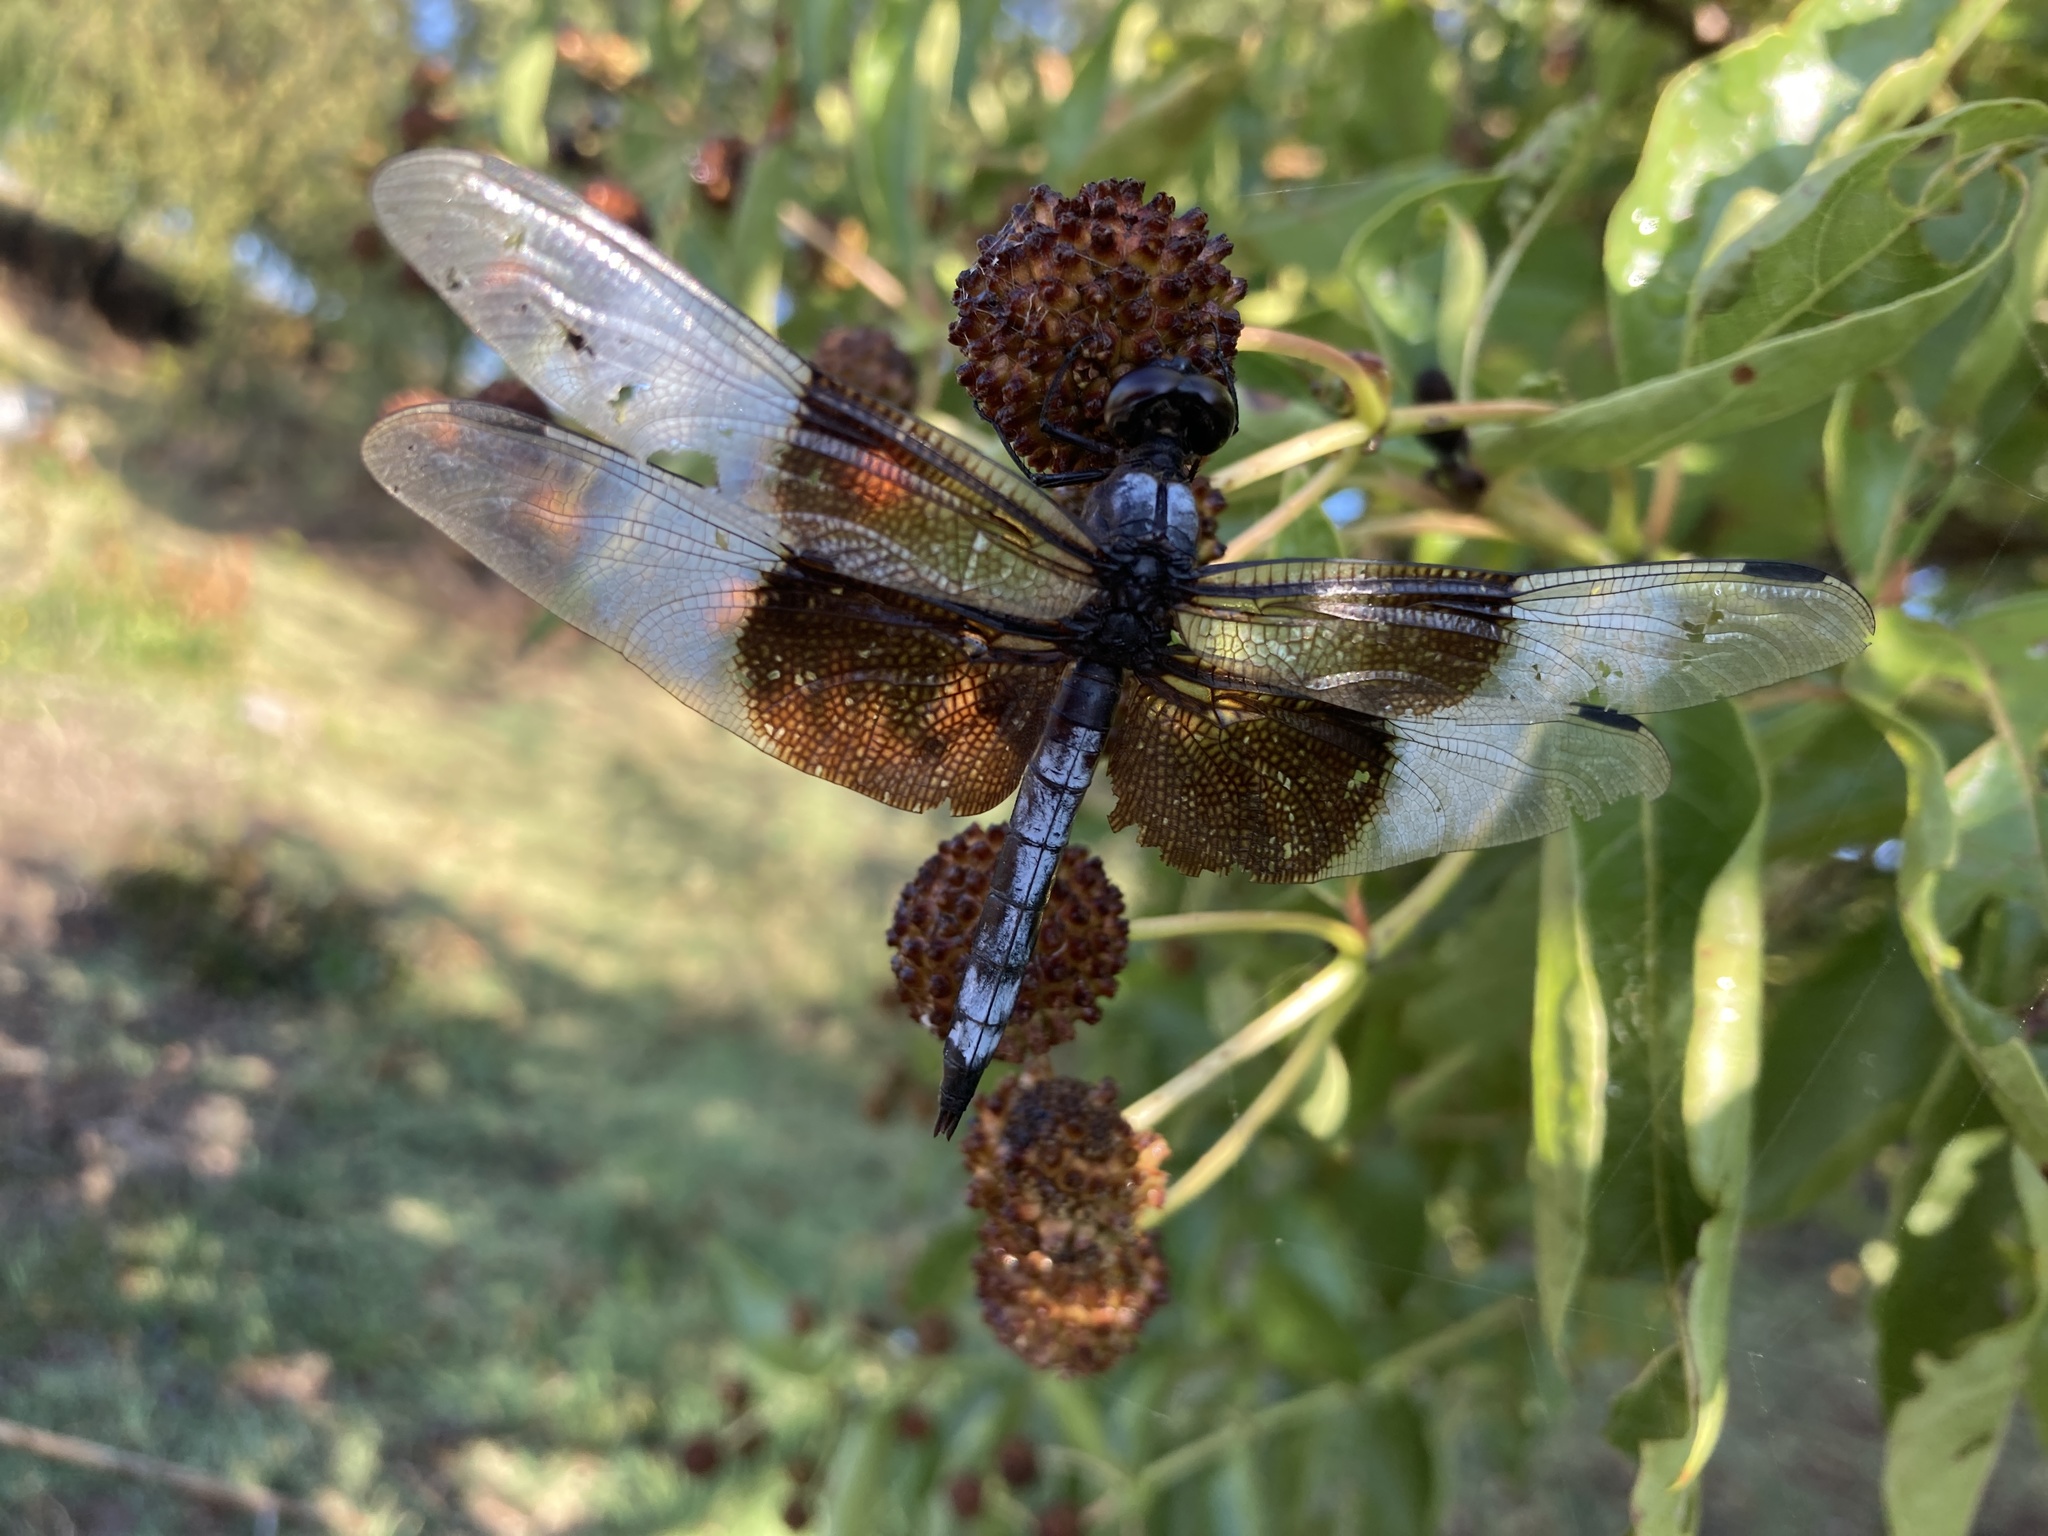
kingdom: Animalia
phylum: Arthropoda
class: Insecta
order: Odonata
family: Libellulidae
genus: Libellula
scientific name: Libellula luctuosa
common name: Widow skimmer
